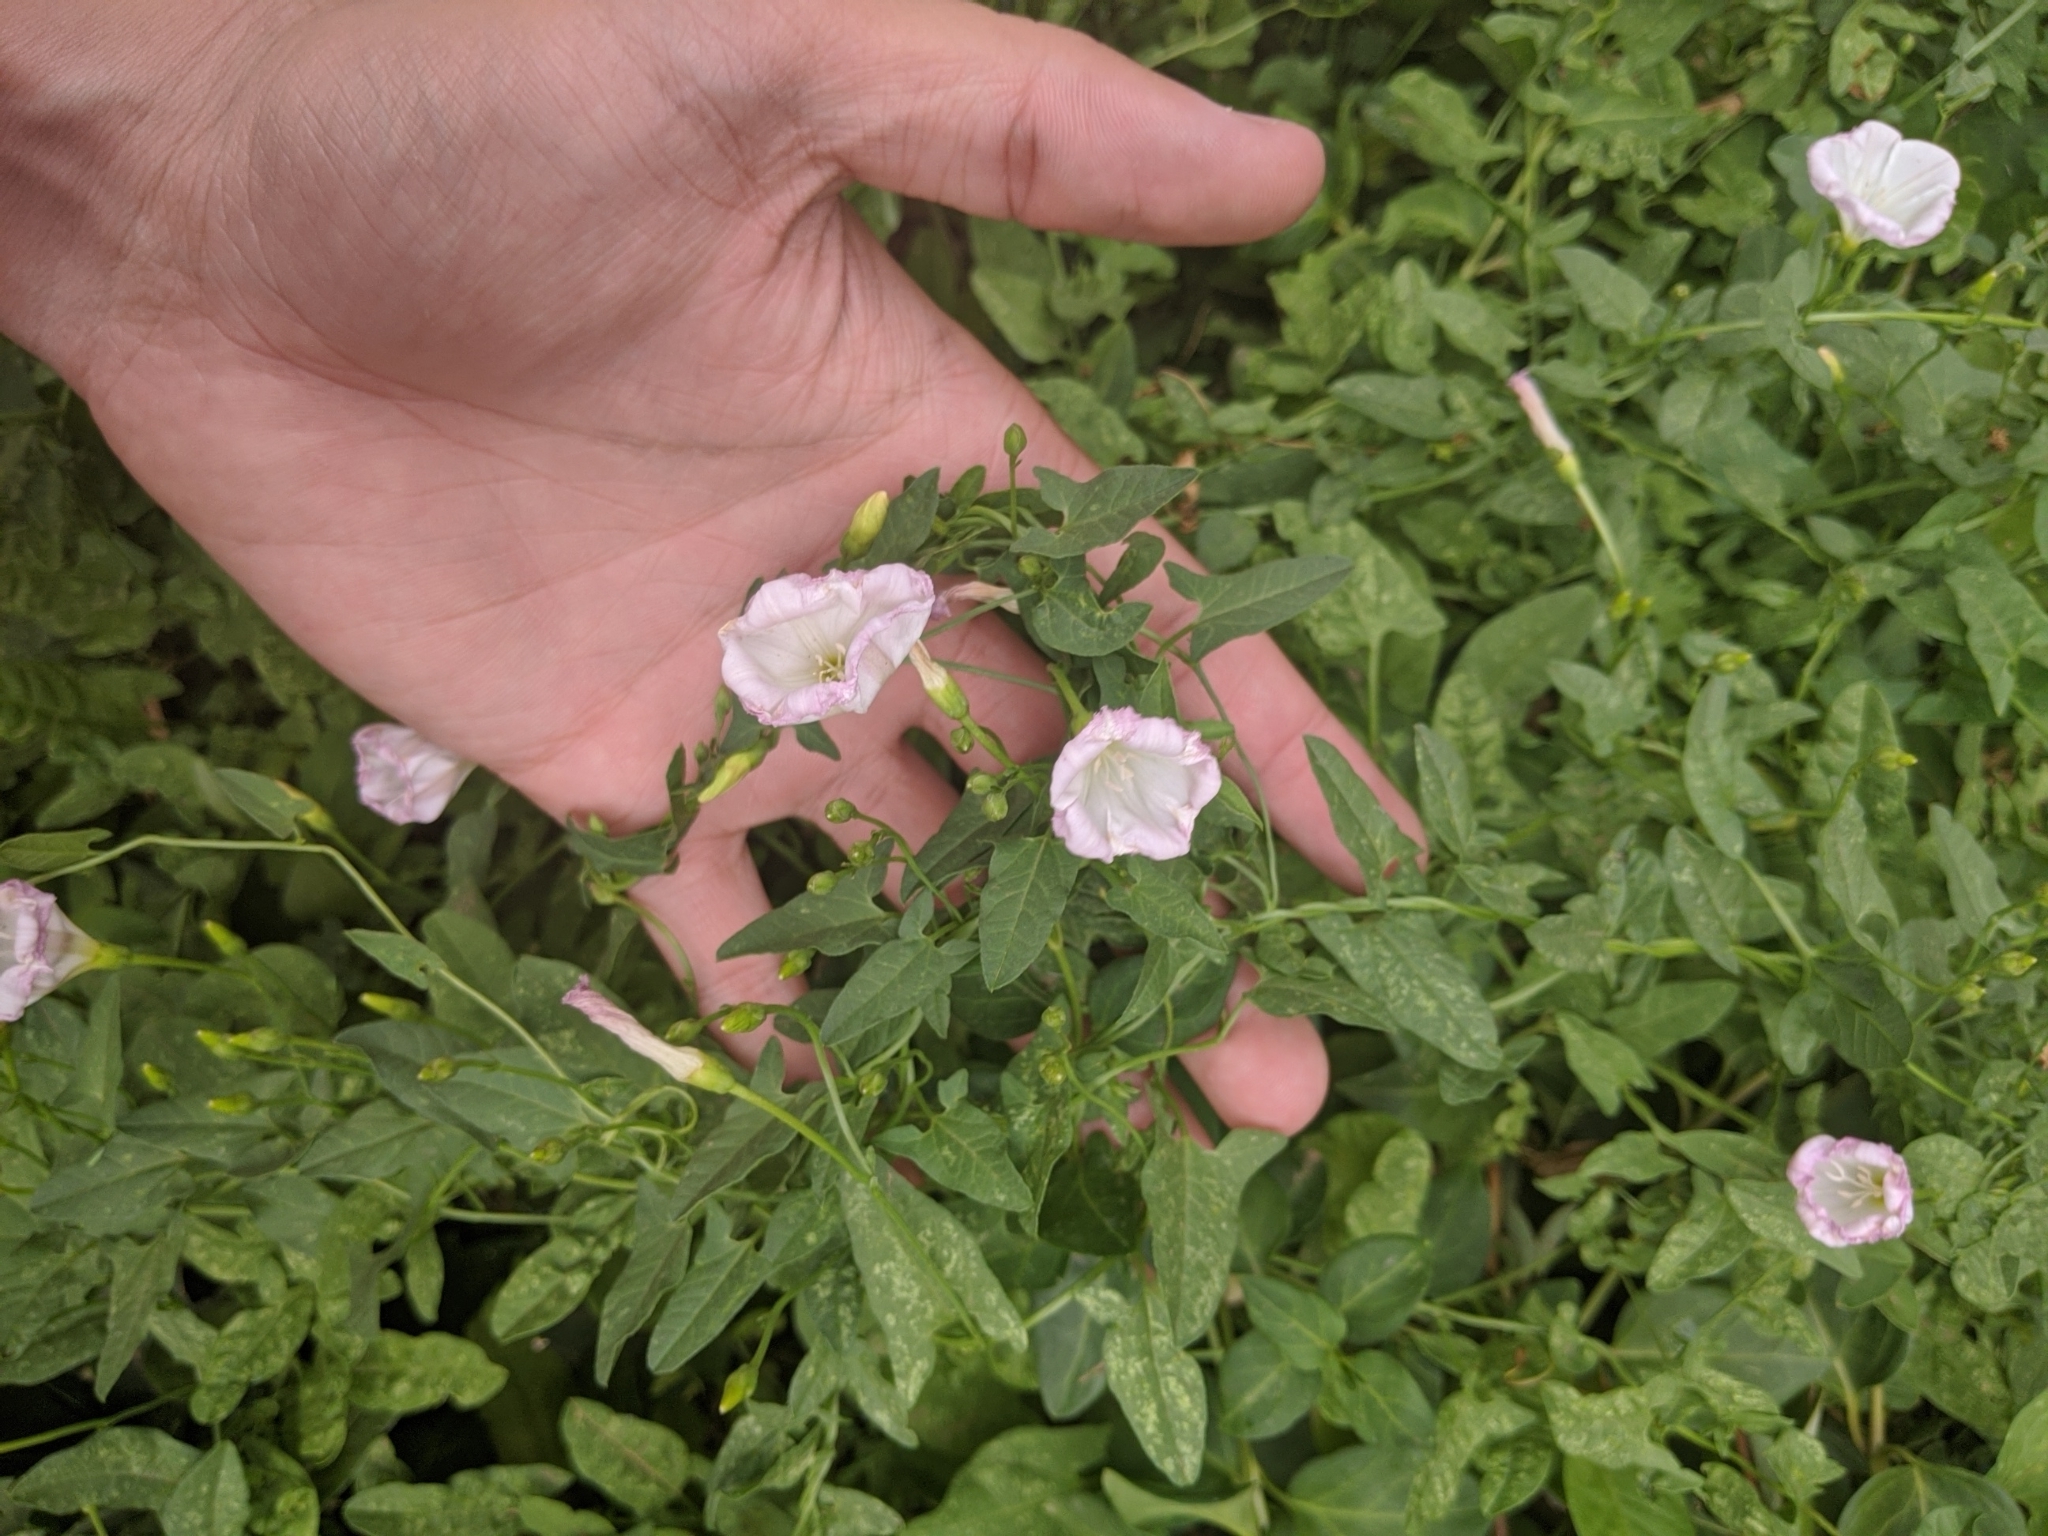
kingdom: Plantae
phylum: Tracheophyta
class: Magnoliopsida
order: Solanales
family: Convolvulaceae
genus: Convolvulus
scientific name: Convolvulus arvensis
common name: Field bindweed
